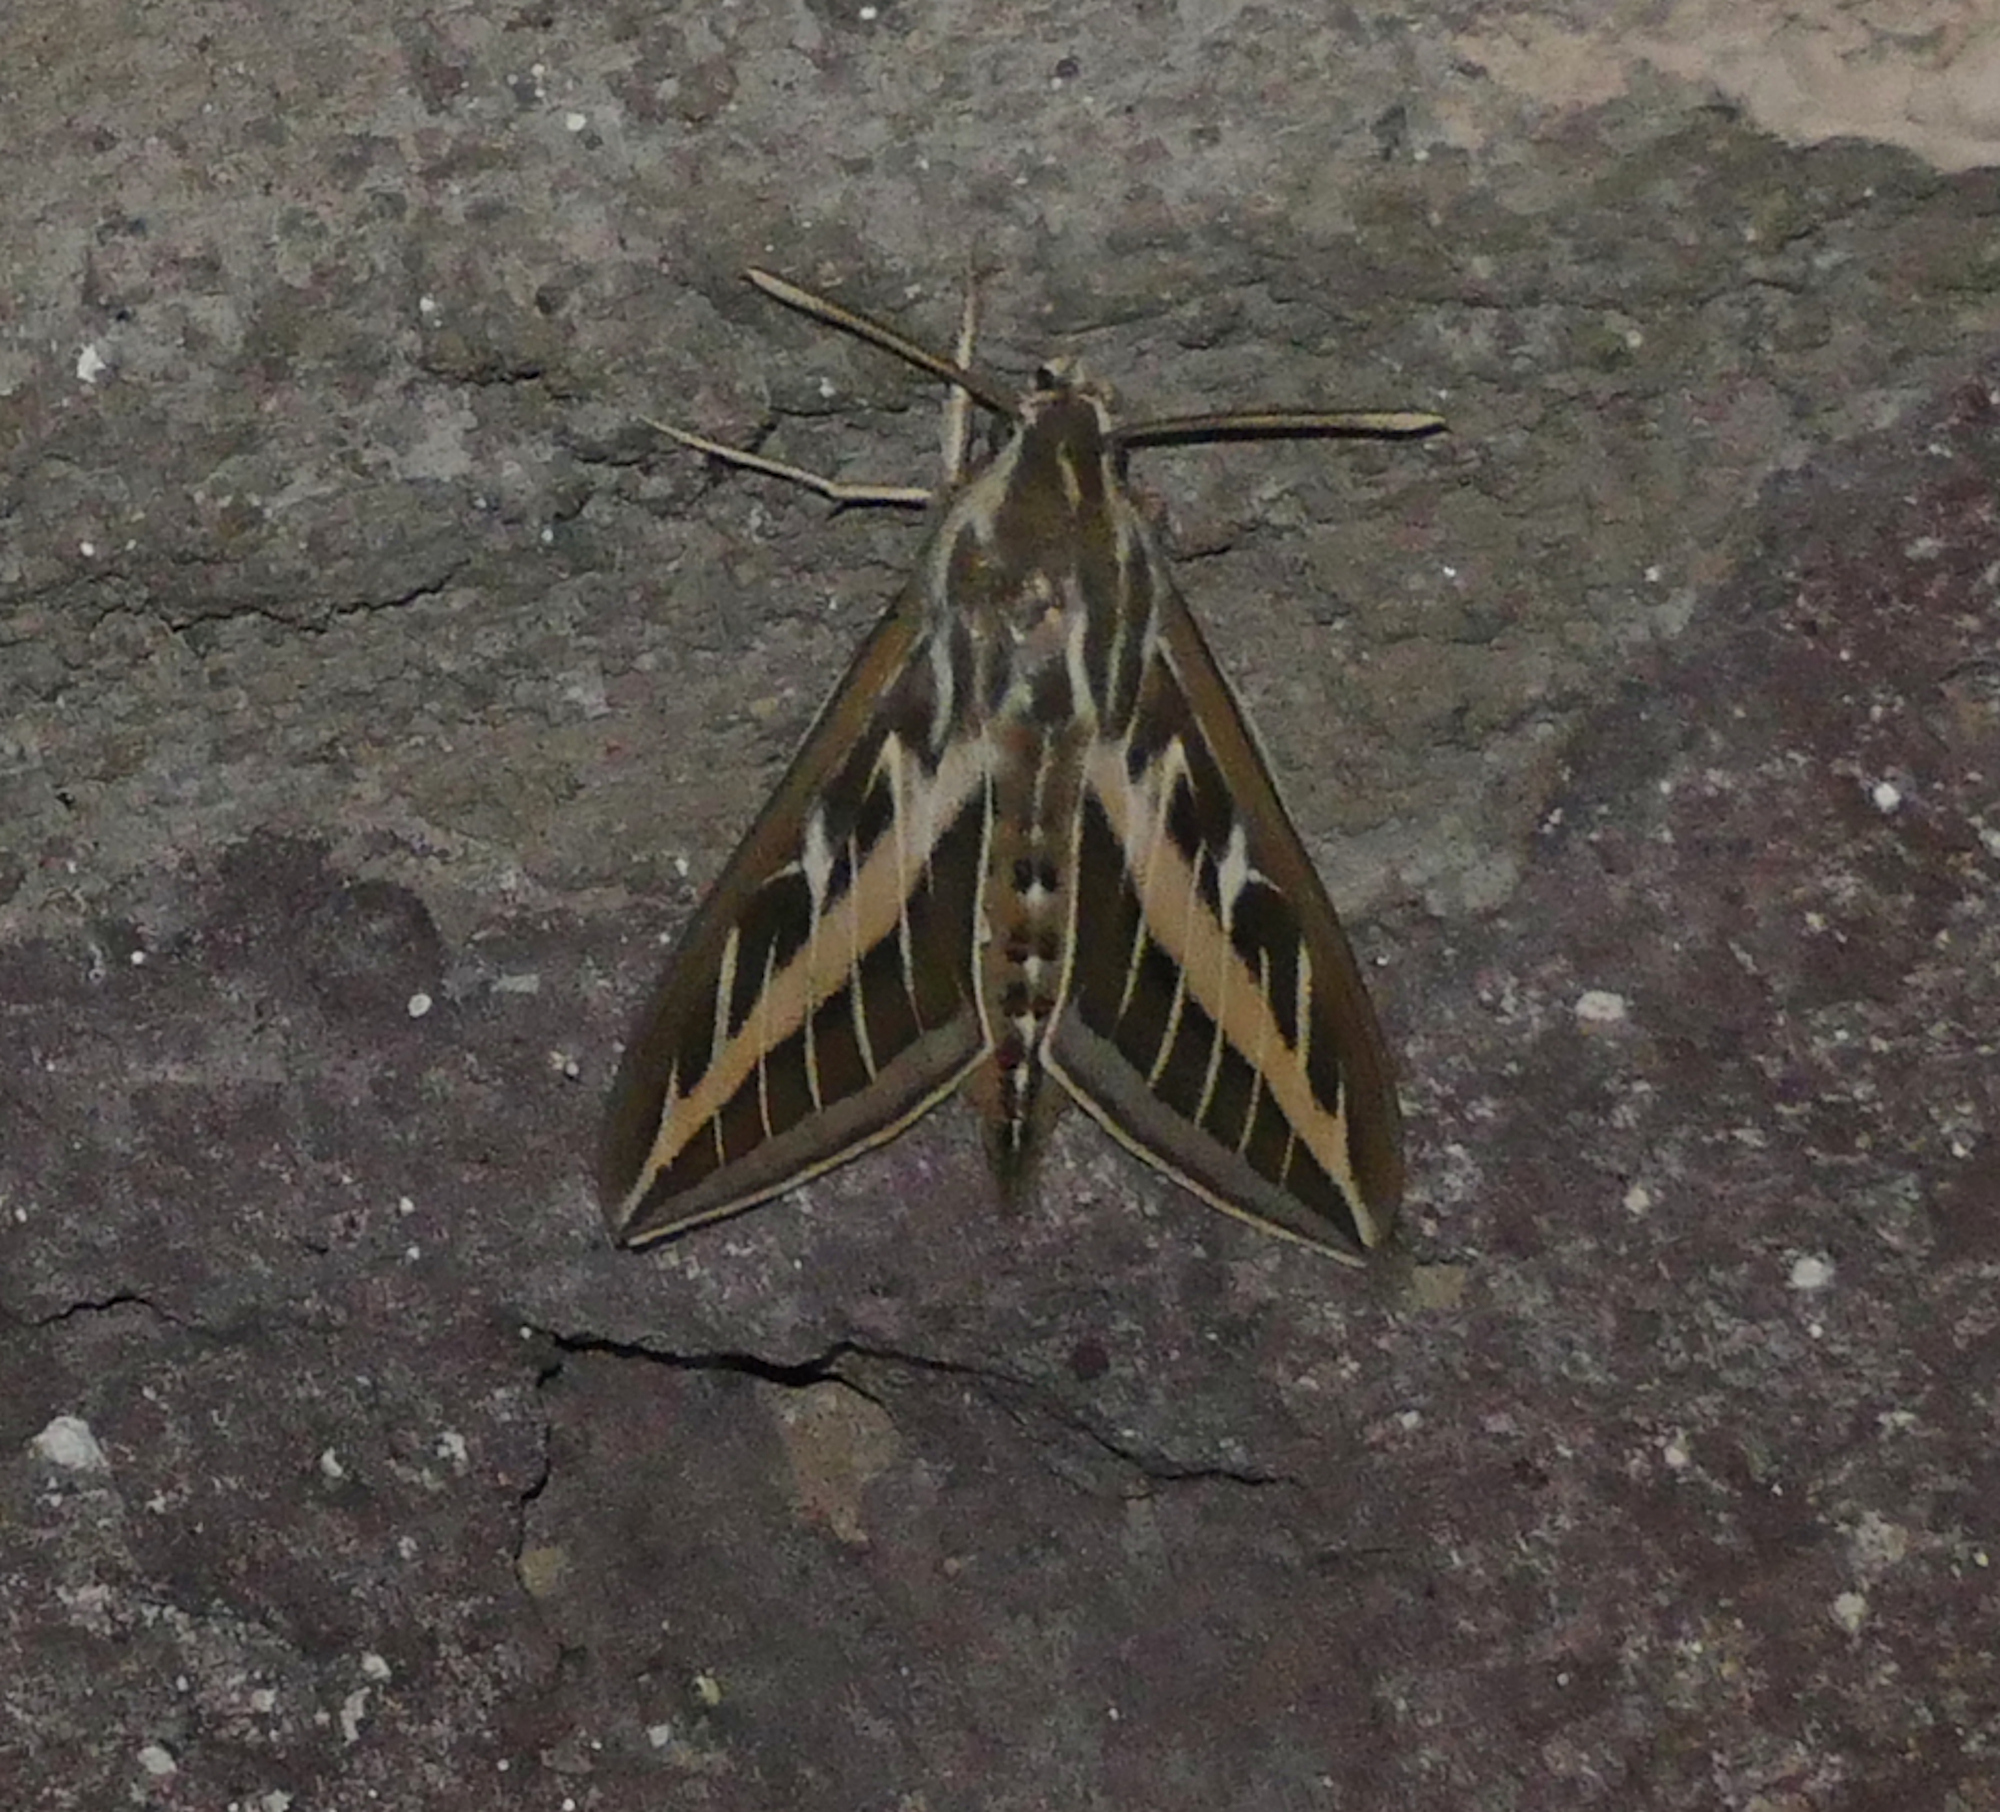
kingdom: Animalia
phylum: Arthropoda
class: Insecta
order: Lepidoptera
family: Sphingidae
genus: Hyles
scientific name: Hyles lineata
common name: White-lined sphinx
